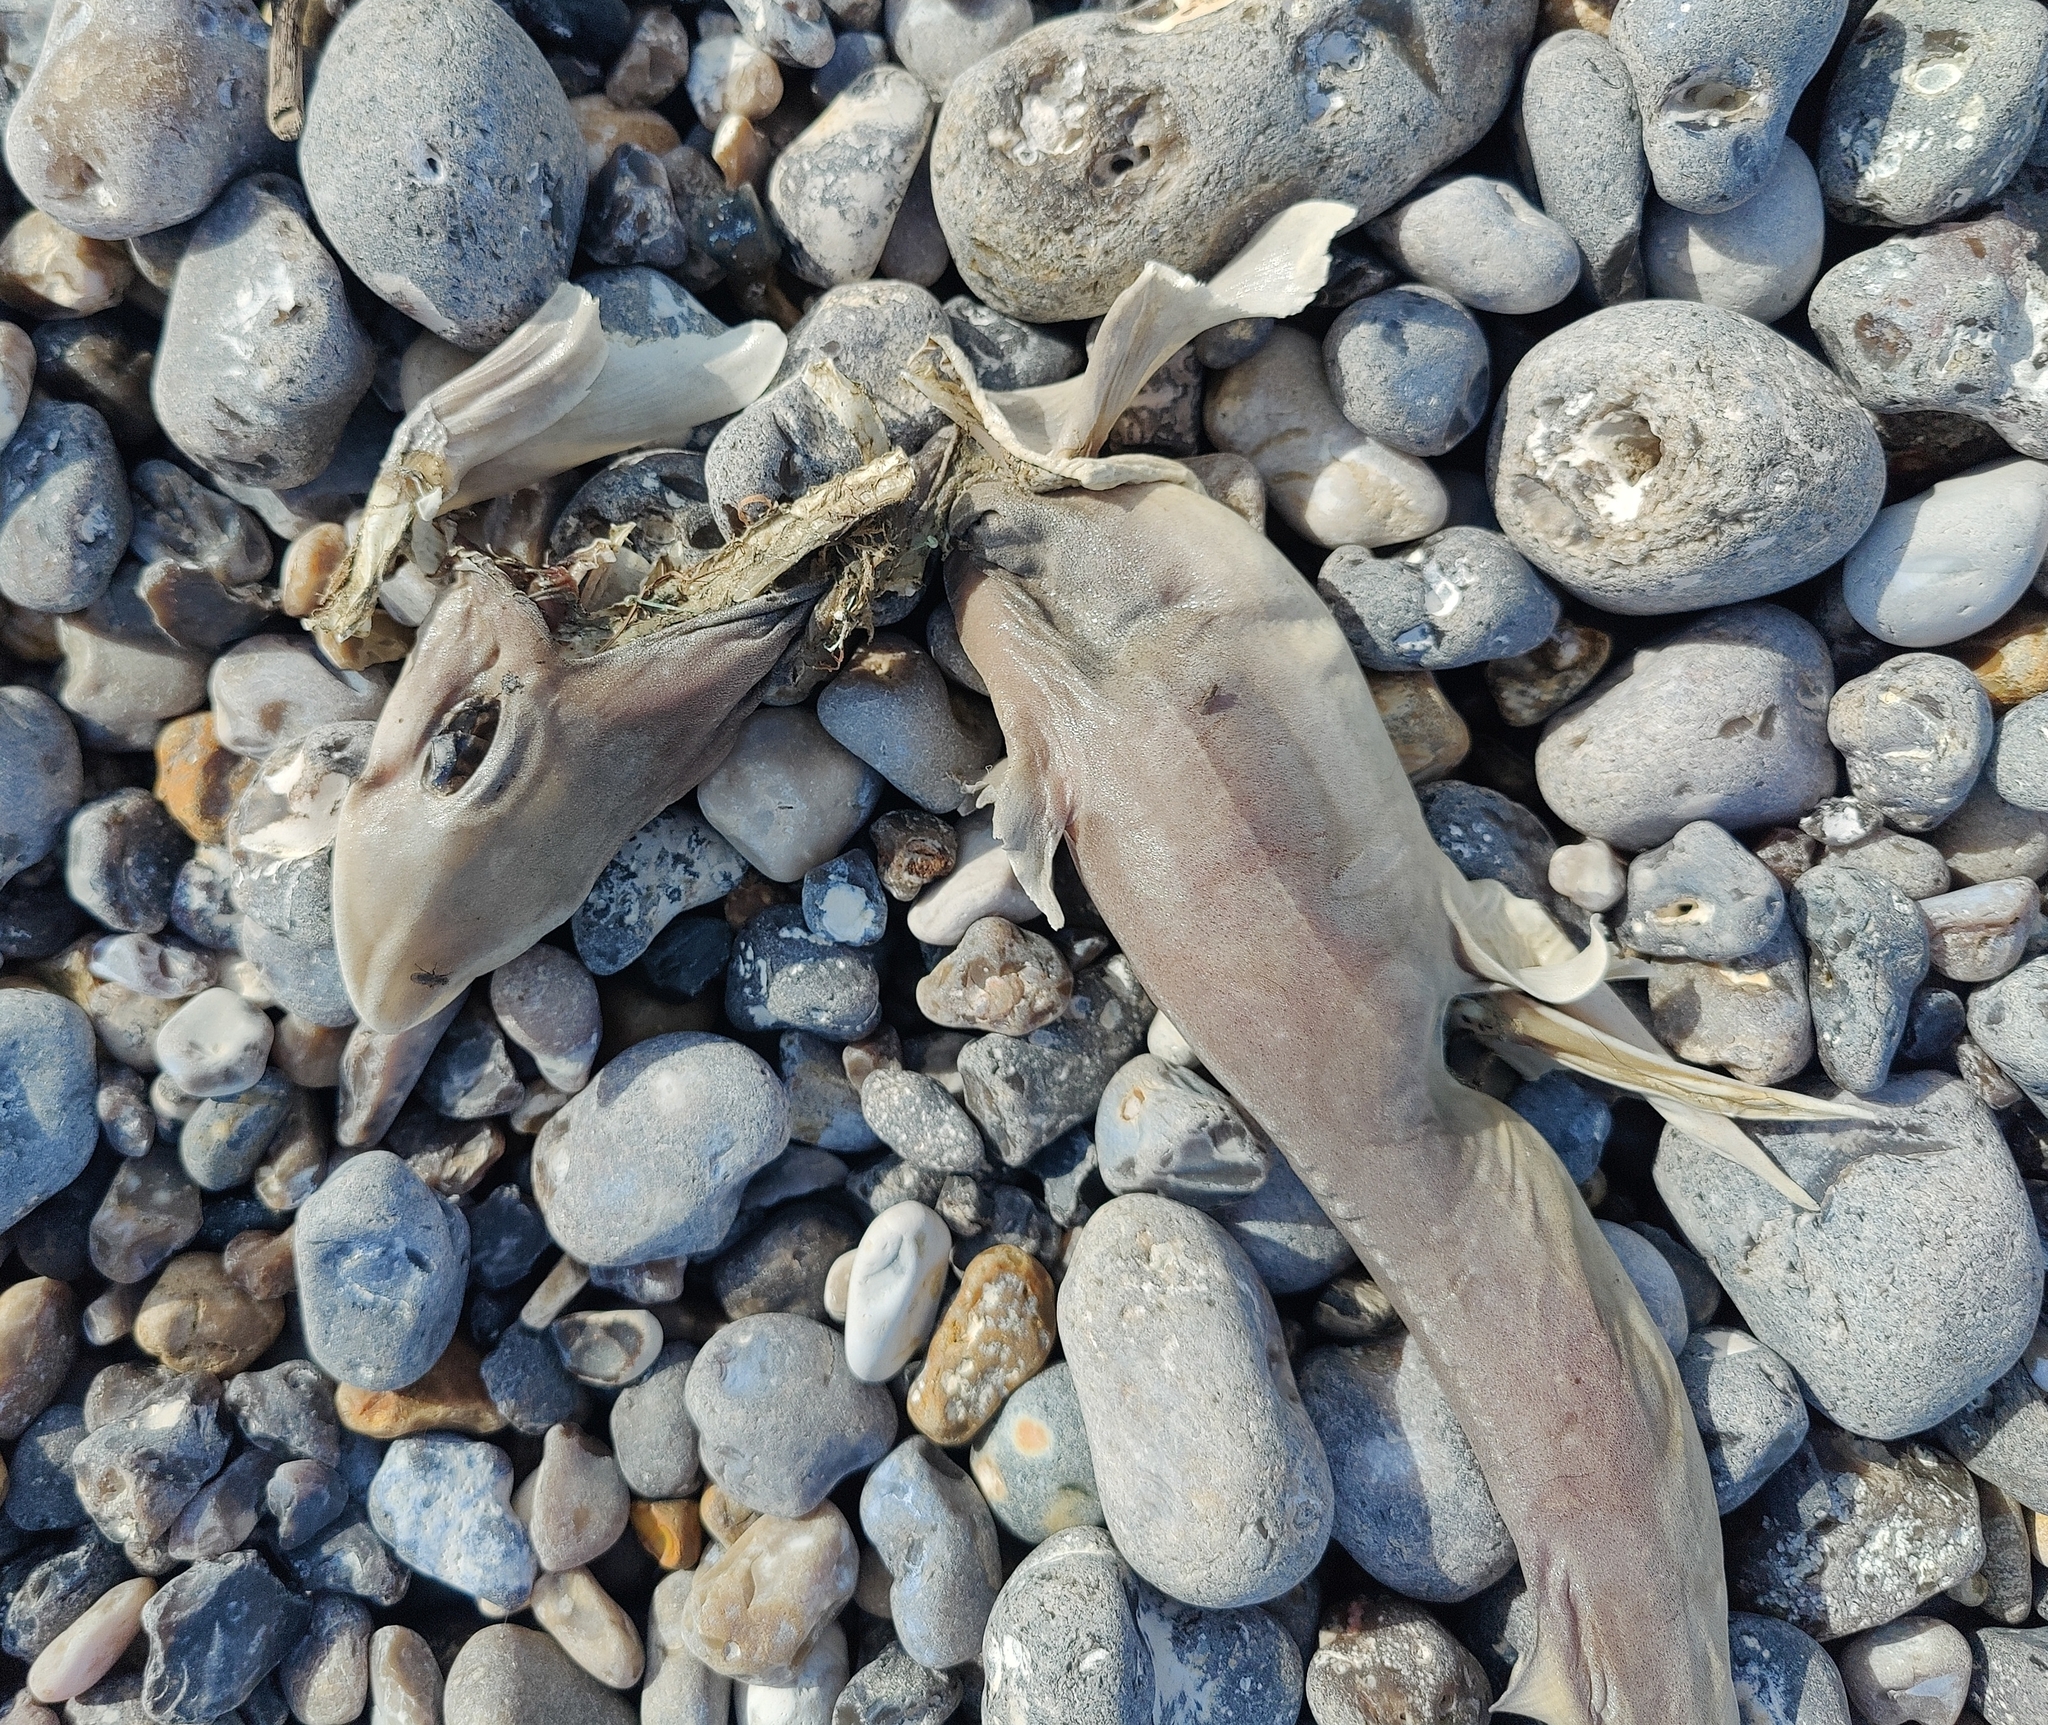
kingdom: Animalia
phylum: Chordata
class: Elasmobranchii
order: Carcharhiniformes
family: Triakidae
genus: Mustelus
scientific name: Mustelus mustelus
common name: Smooth-hound
